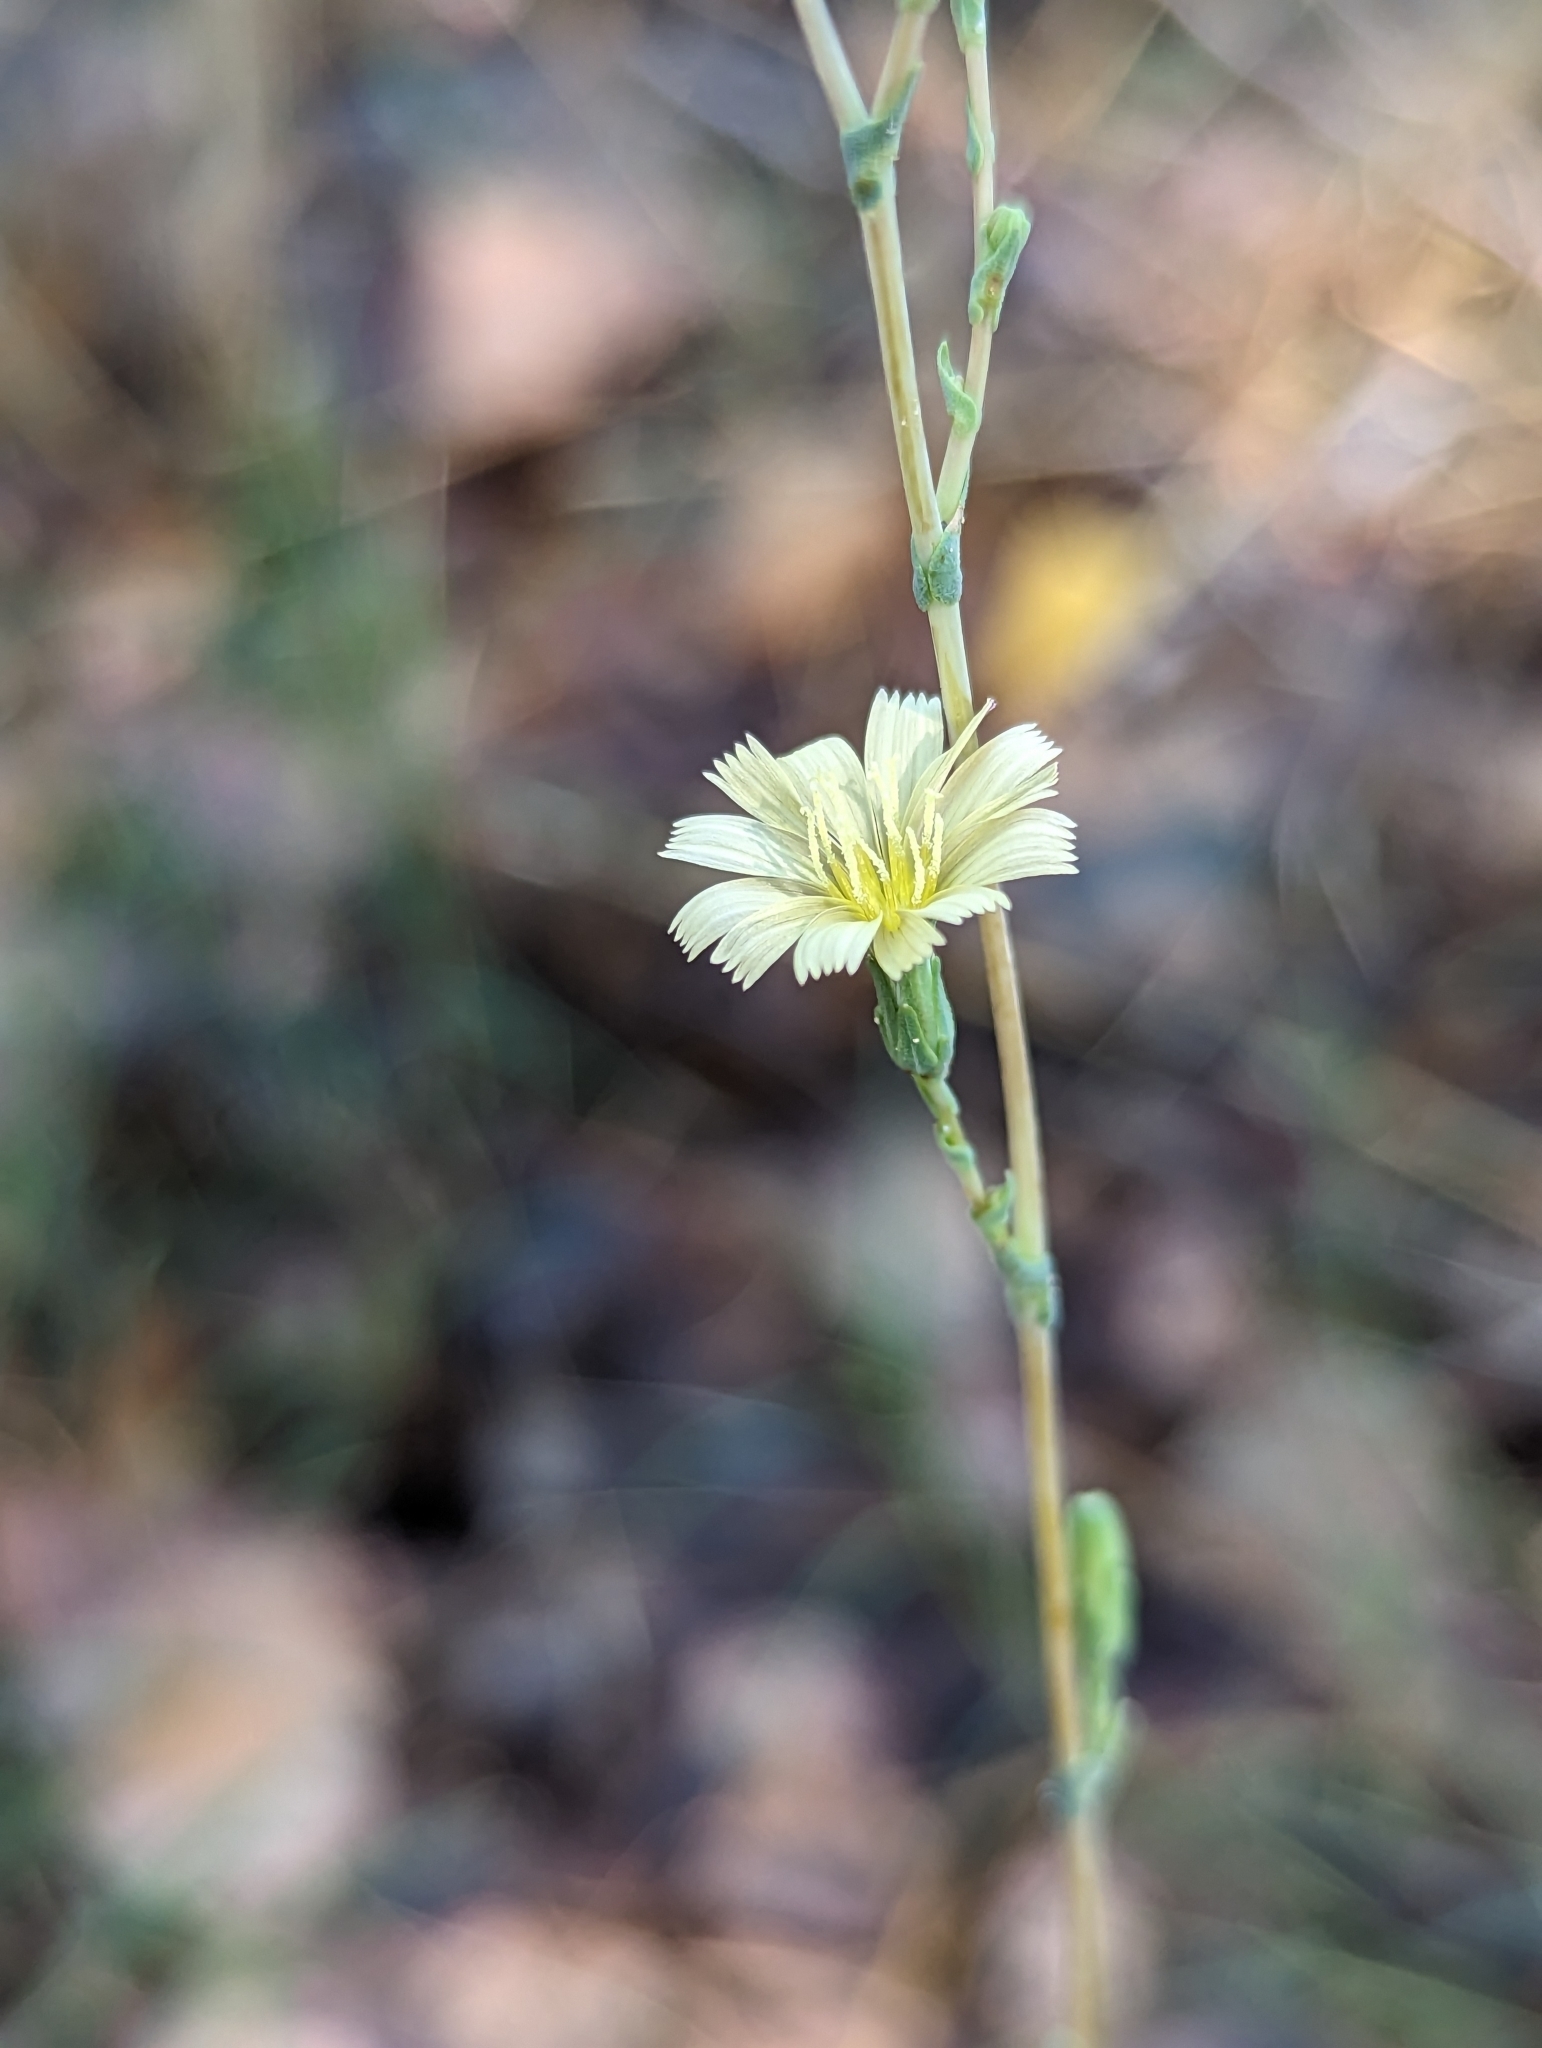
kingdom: Plantae
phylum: Tracheophyta
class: Magnoliopsida
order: Asterales
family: Asteraceae
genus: Lactuca
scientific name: Lactuca serriola
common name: Prickly lettuce
